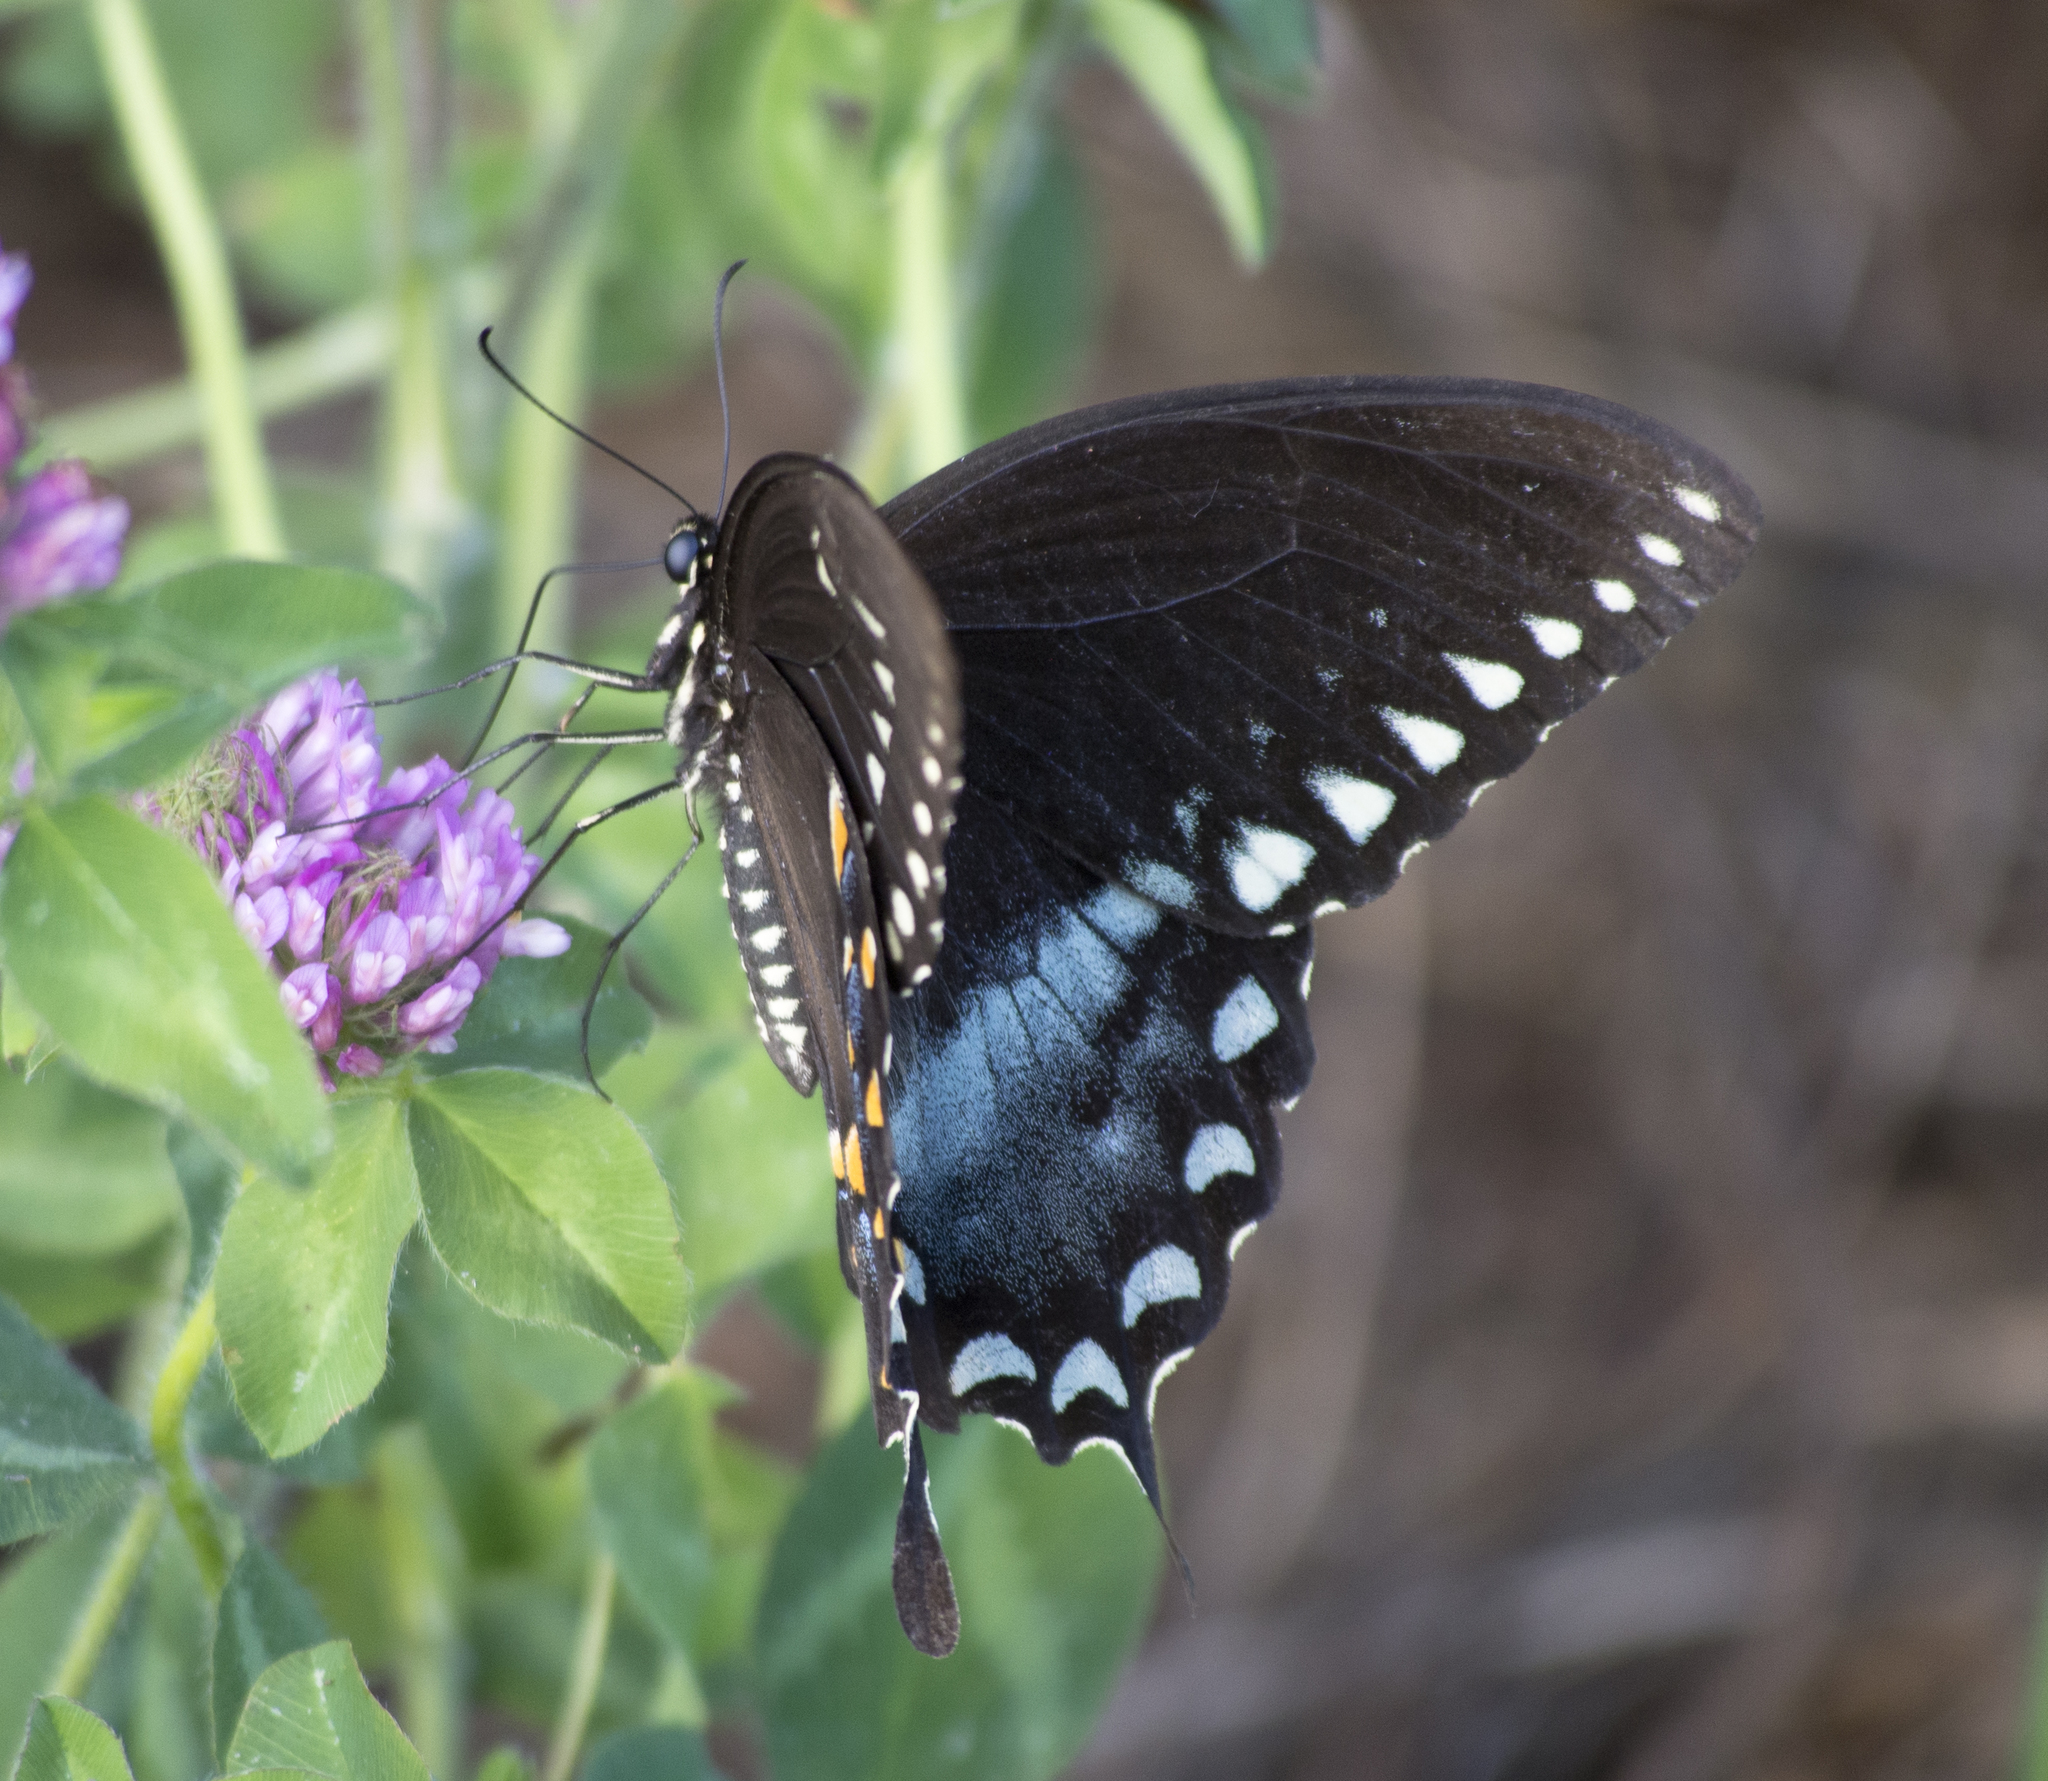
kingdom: Animalia
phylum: Arthropoda
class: Insecta
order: Lepidoptera
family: Papilionidae
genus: Papilio
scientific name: Papilio troilus
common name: Spicebush swallowtail
